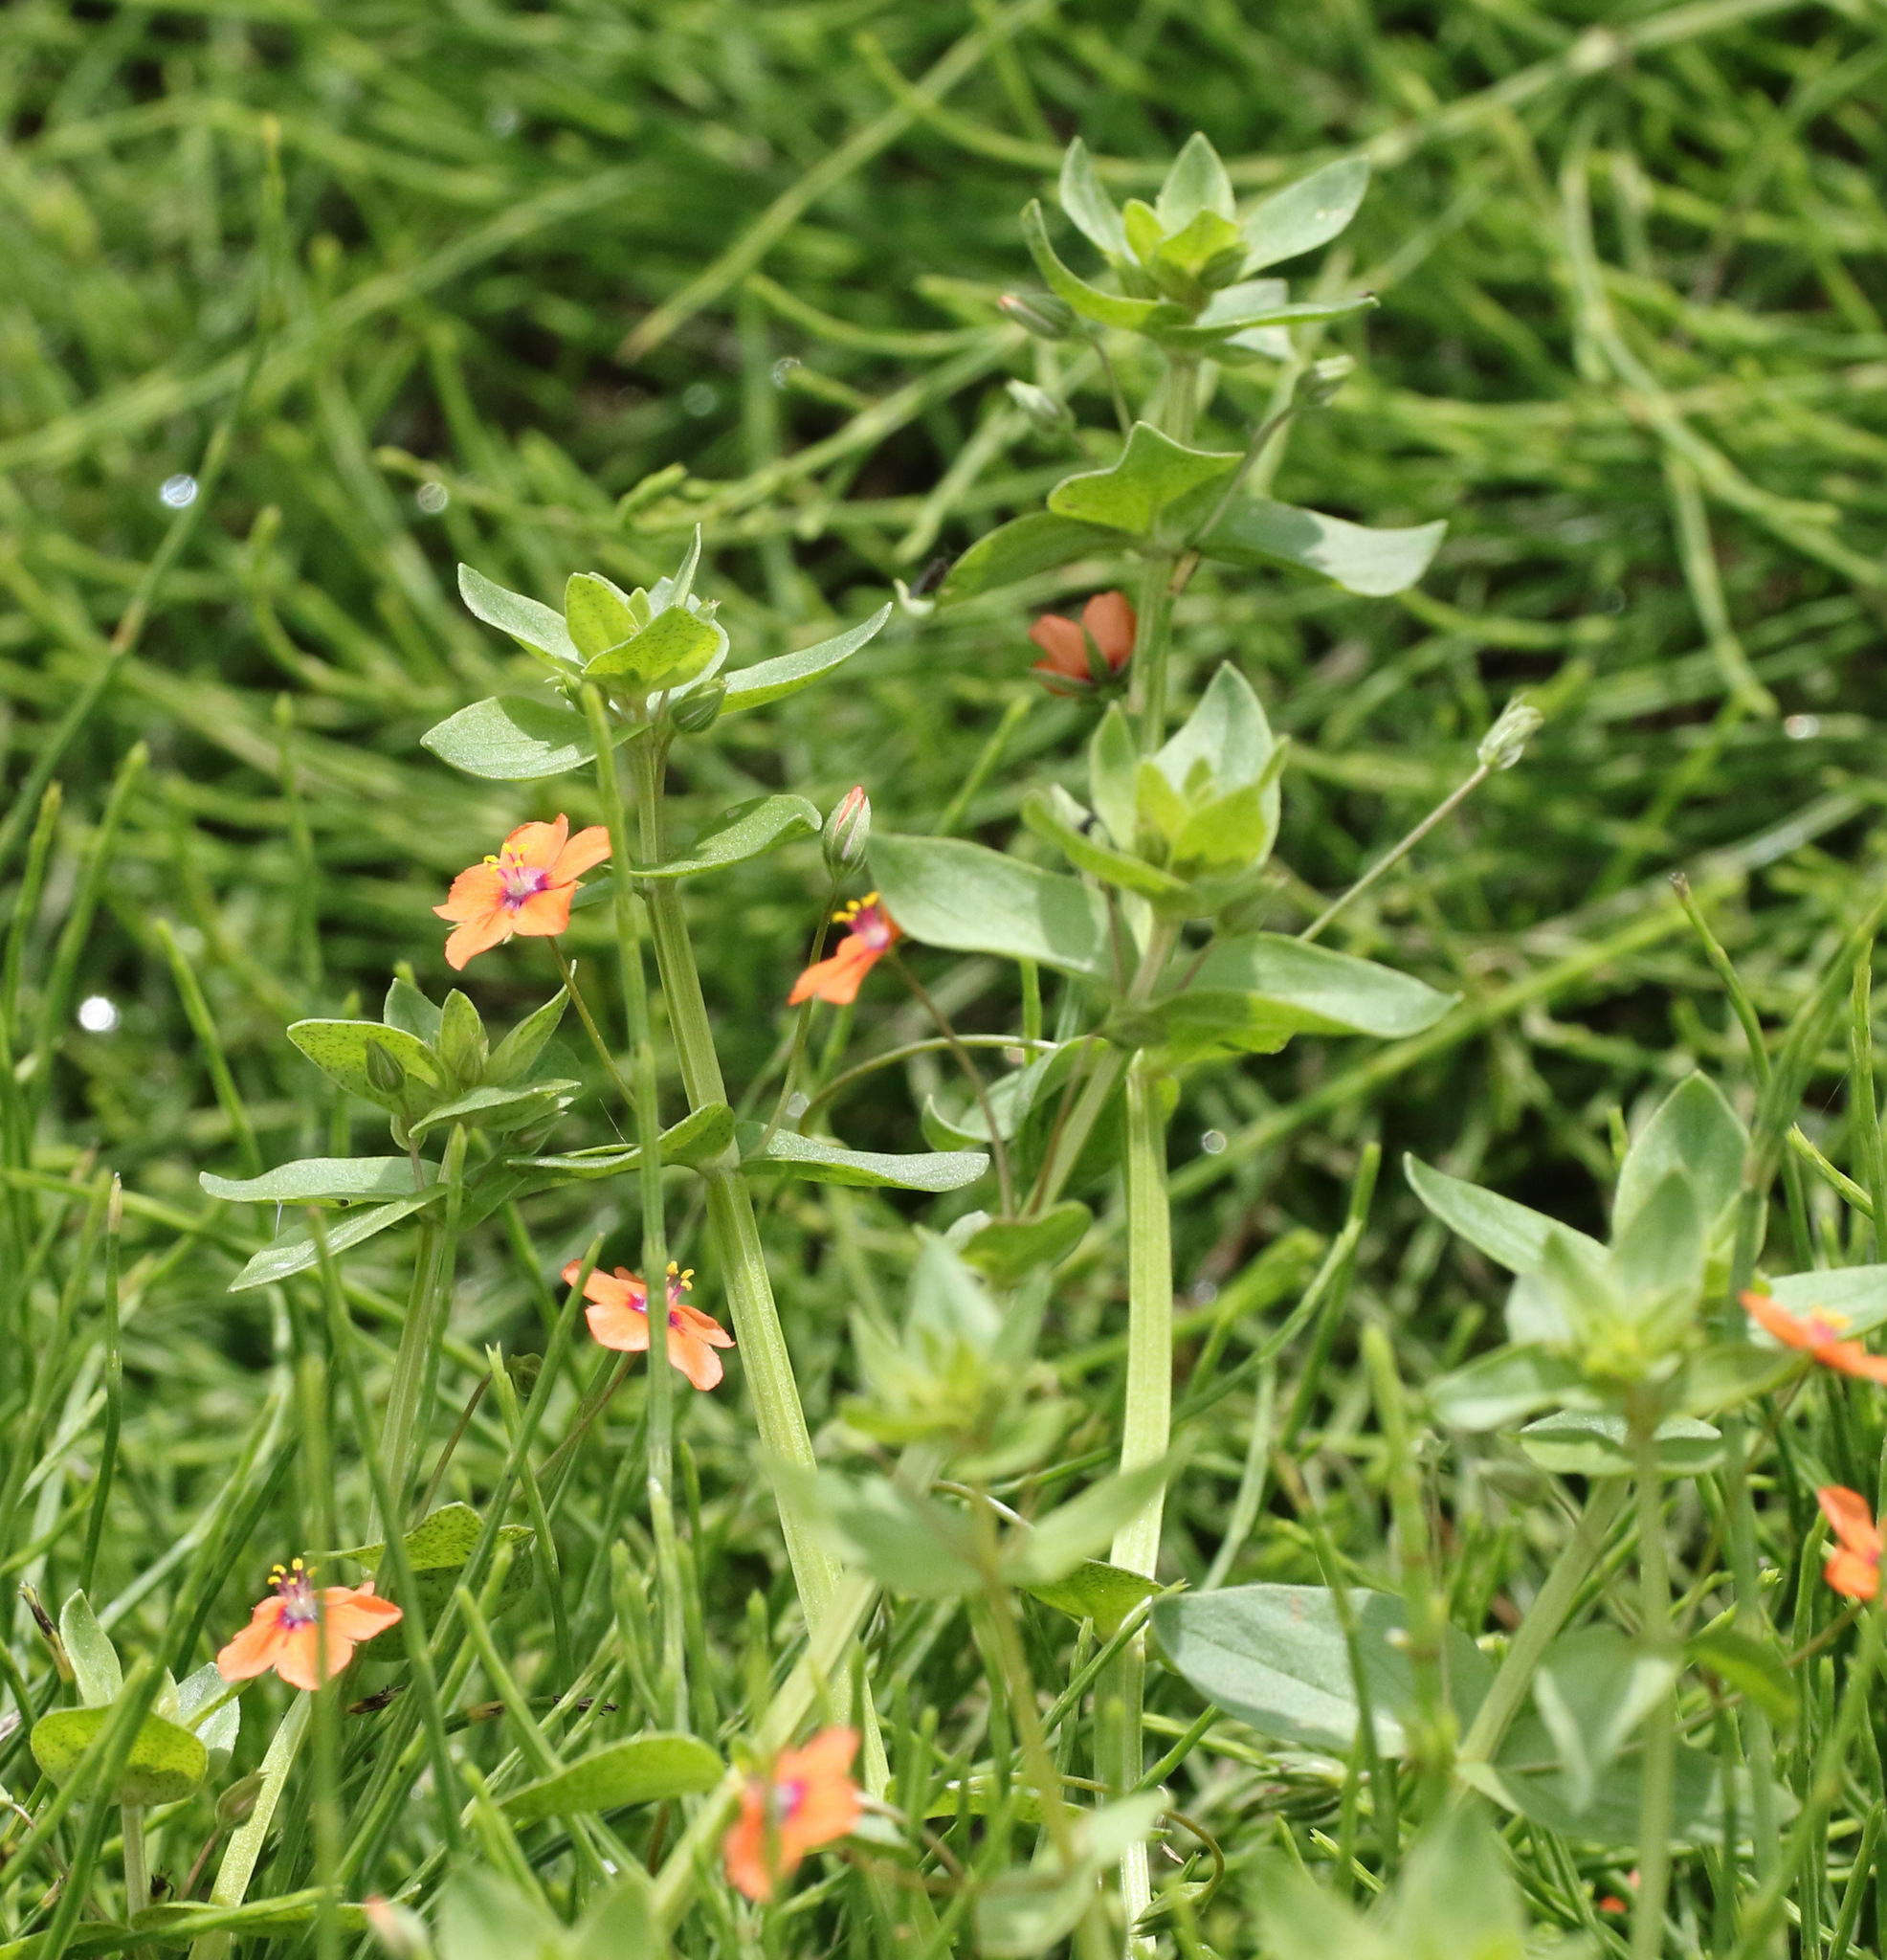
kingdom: Plantae
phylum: Tracheophyta
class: Magnoliopsida
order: Ericales
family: Primulaceae
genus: Lysimachia
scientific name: Lysimachia arvensis
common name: Scarlet pimpernel
